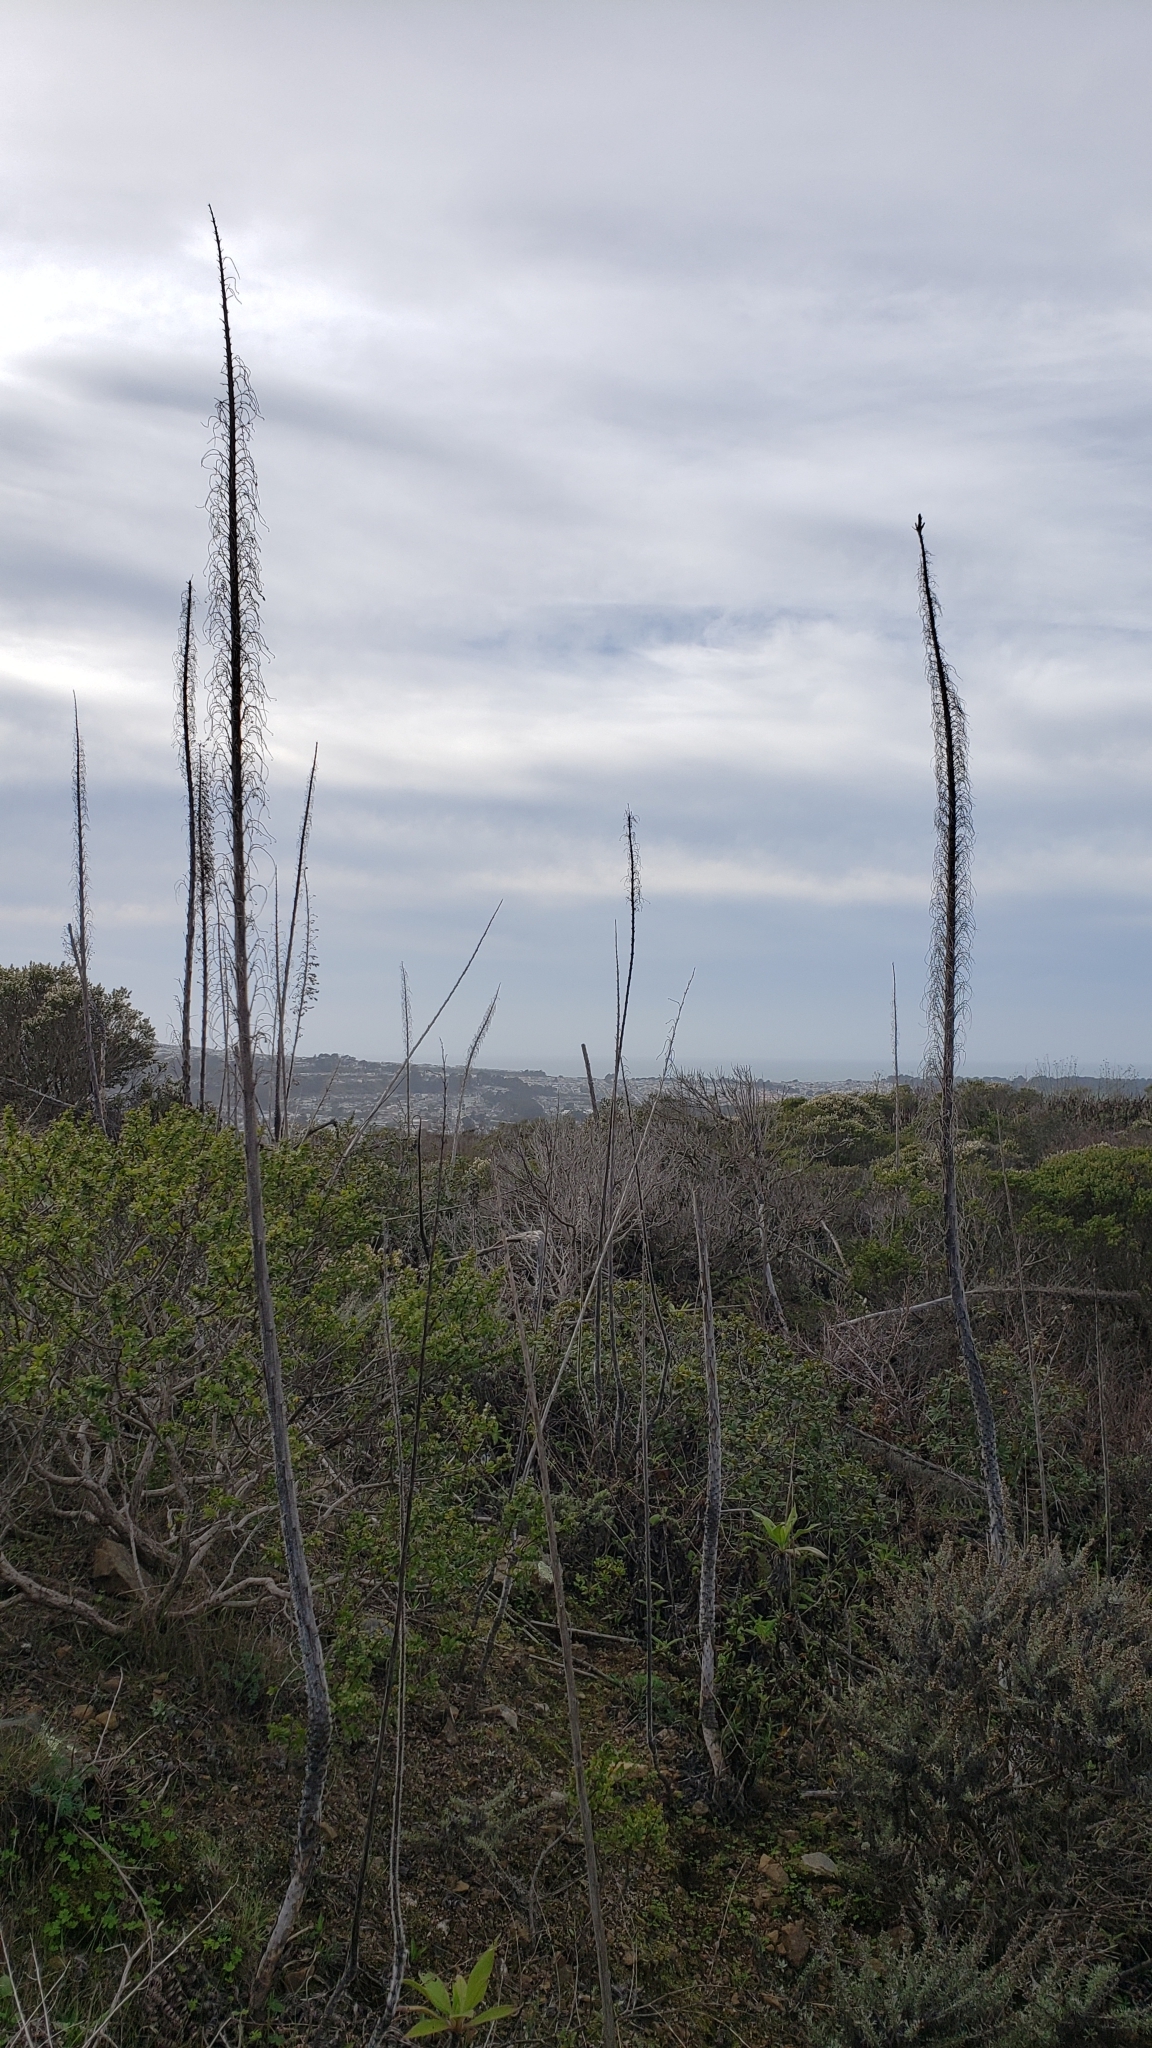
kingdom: Plantae
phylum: Tracheophyta
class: Magnoliopsida
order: Boraginales
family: Boraginaceae
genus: Echium
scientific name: Echium pininana
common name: Giant viper's-bugloss
